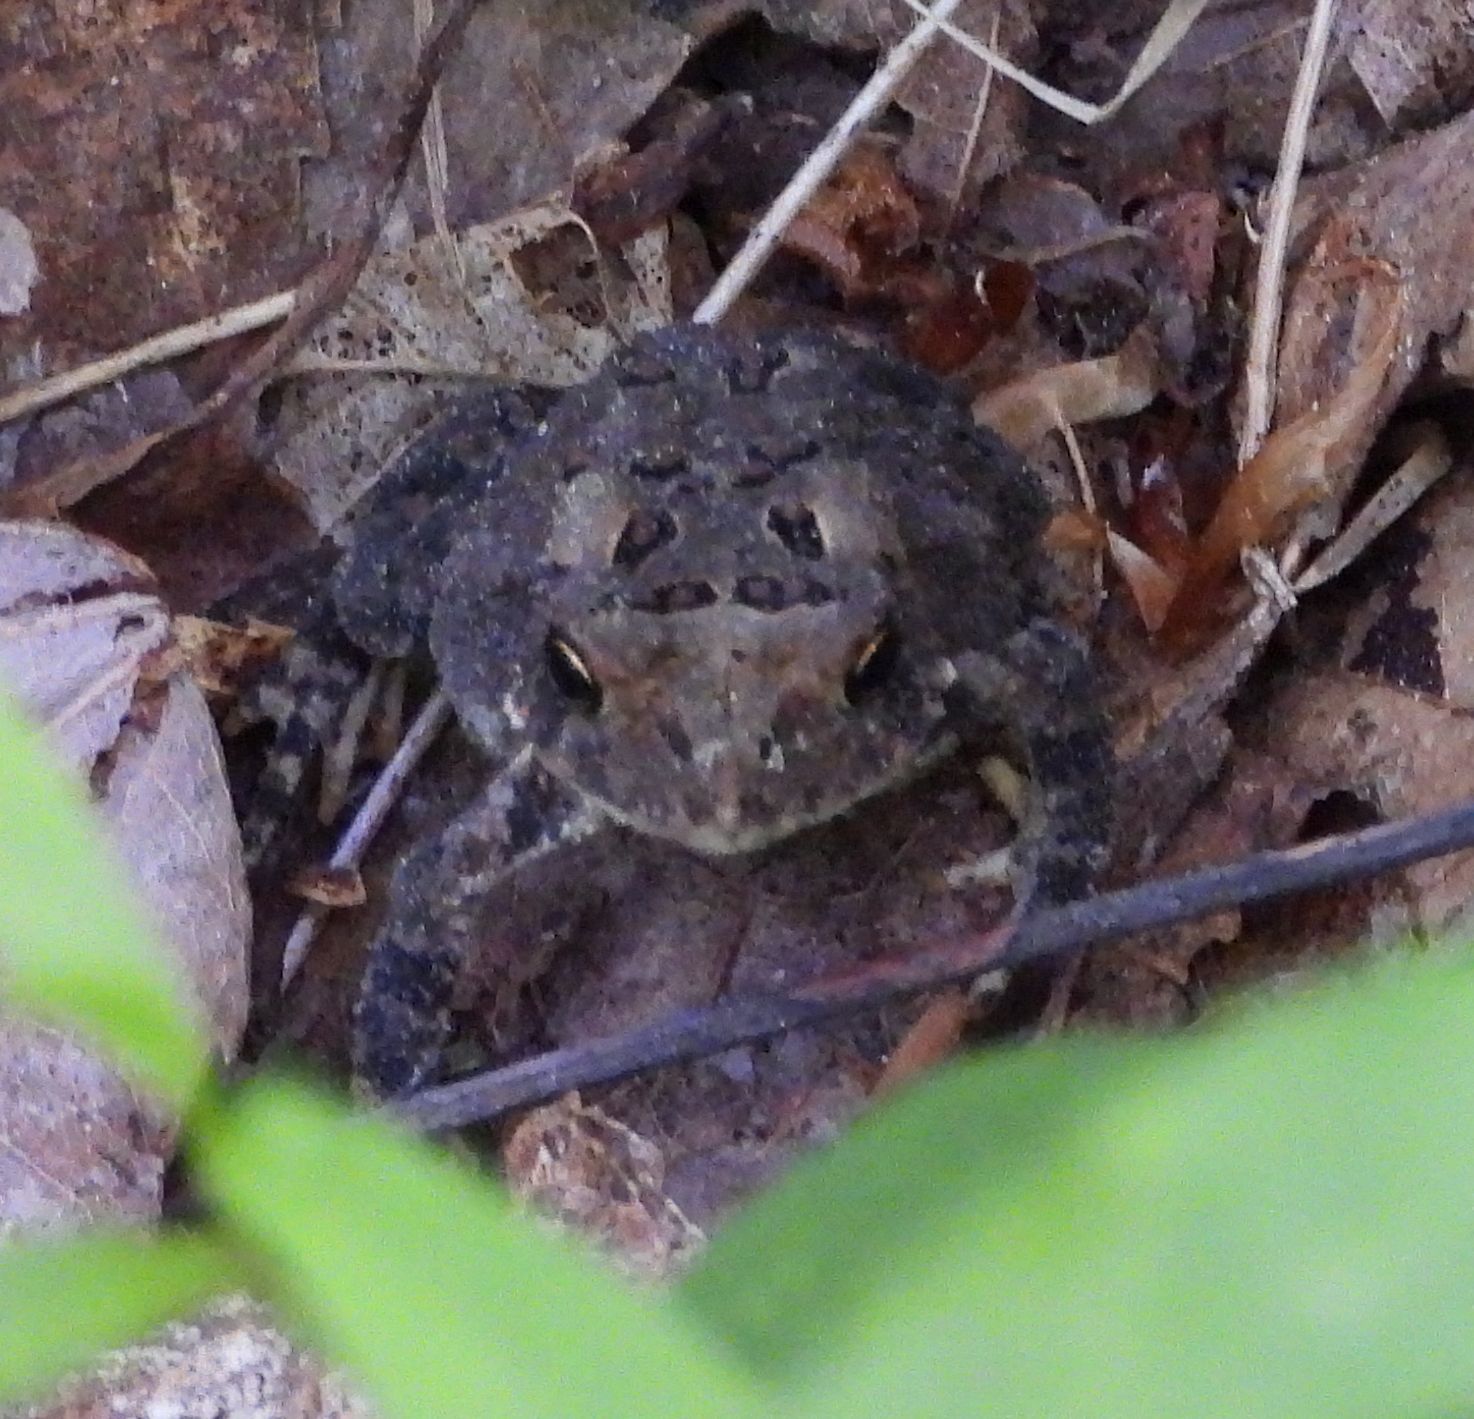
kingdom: Animalia
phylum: Chordata
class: Amphibia
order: Anura
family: Bufonidae
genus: Anaxyrus
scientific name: Anaxyrus americanus
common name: American toad
